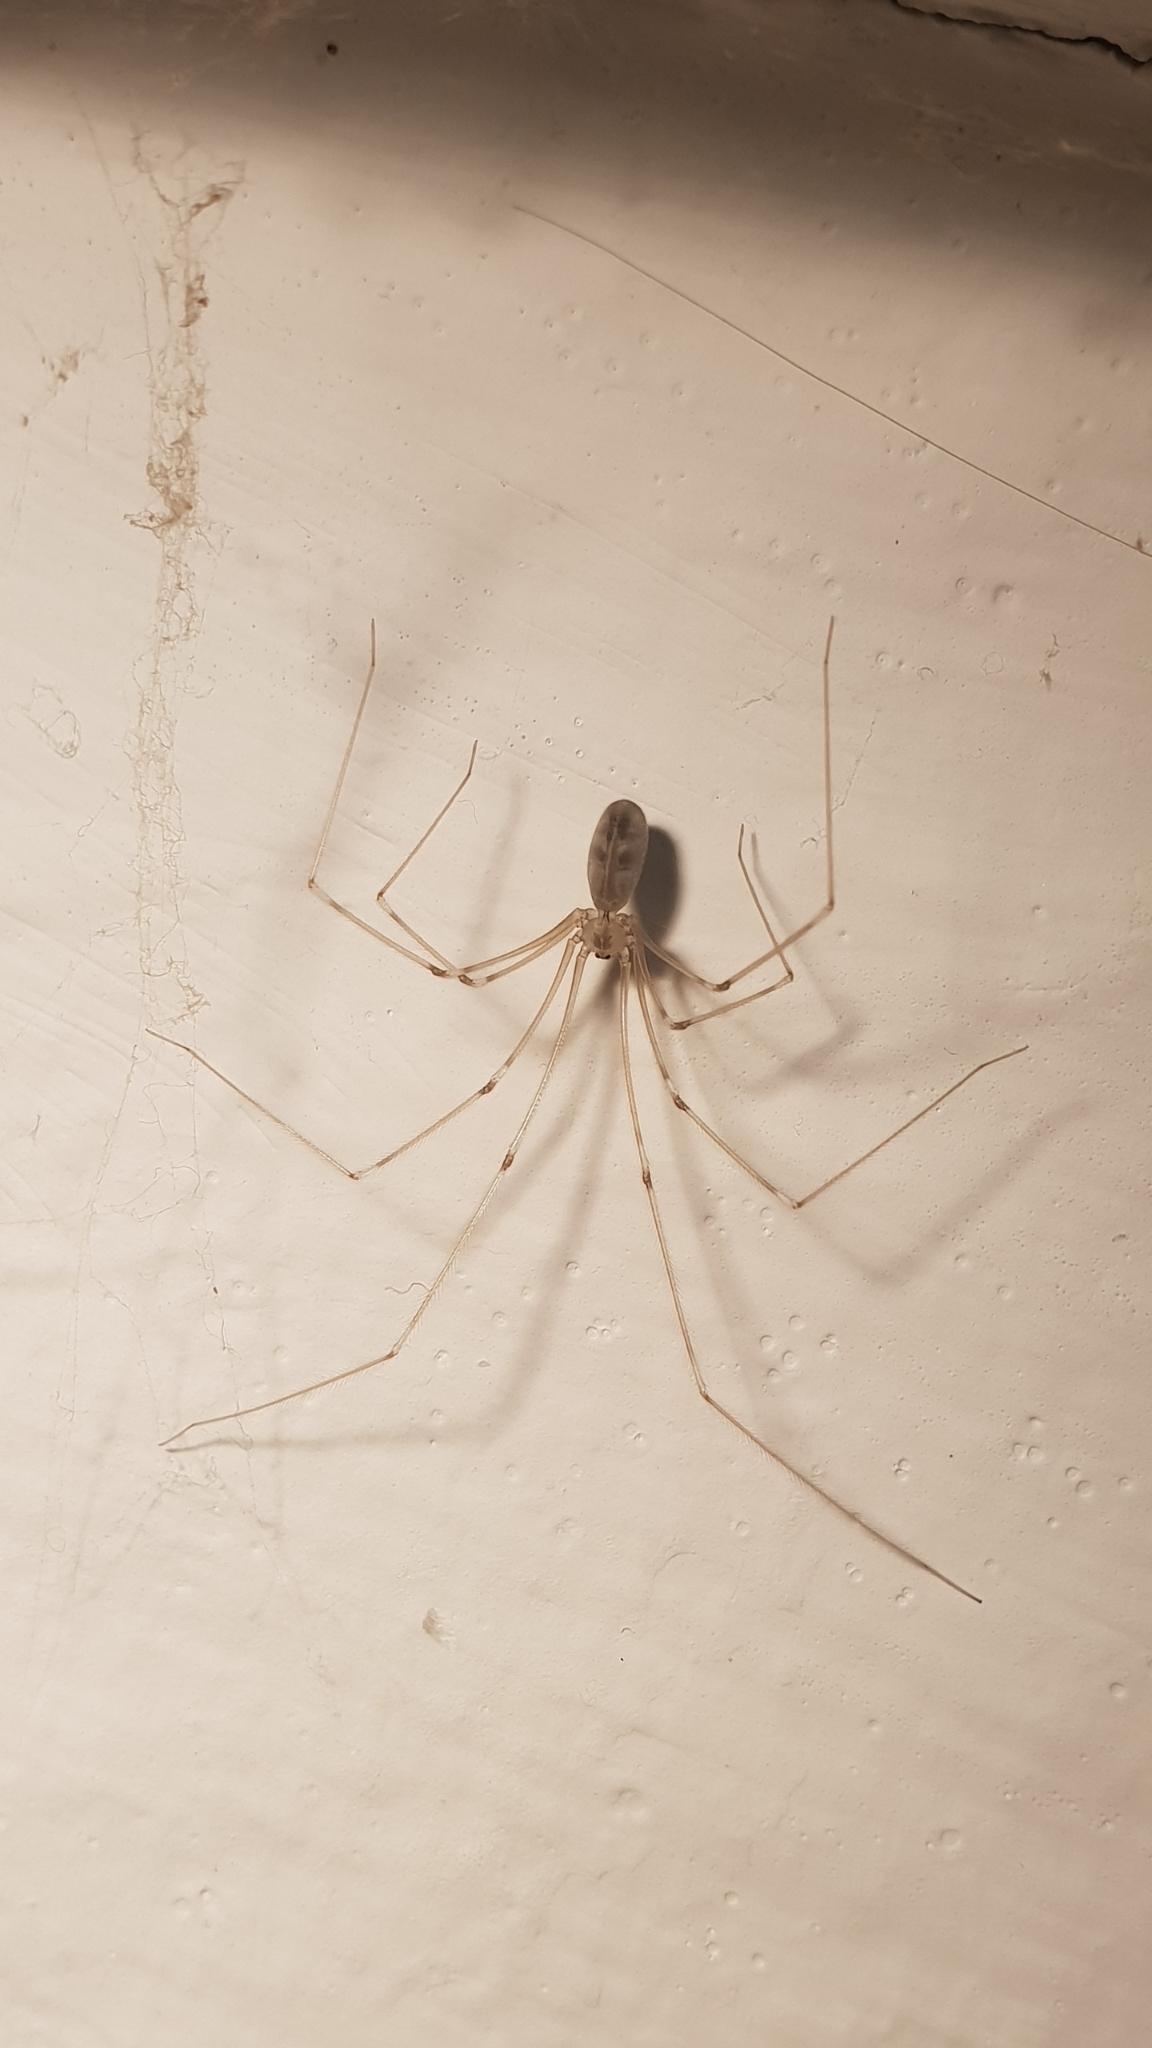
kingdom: Animalia
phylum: Arthropoda
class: Arachnida
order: Araneae
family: Pholcidae
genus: Pholcus
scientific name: Pholcus phalangioides
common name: Longbodied cellar spider
